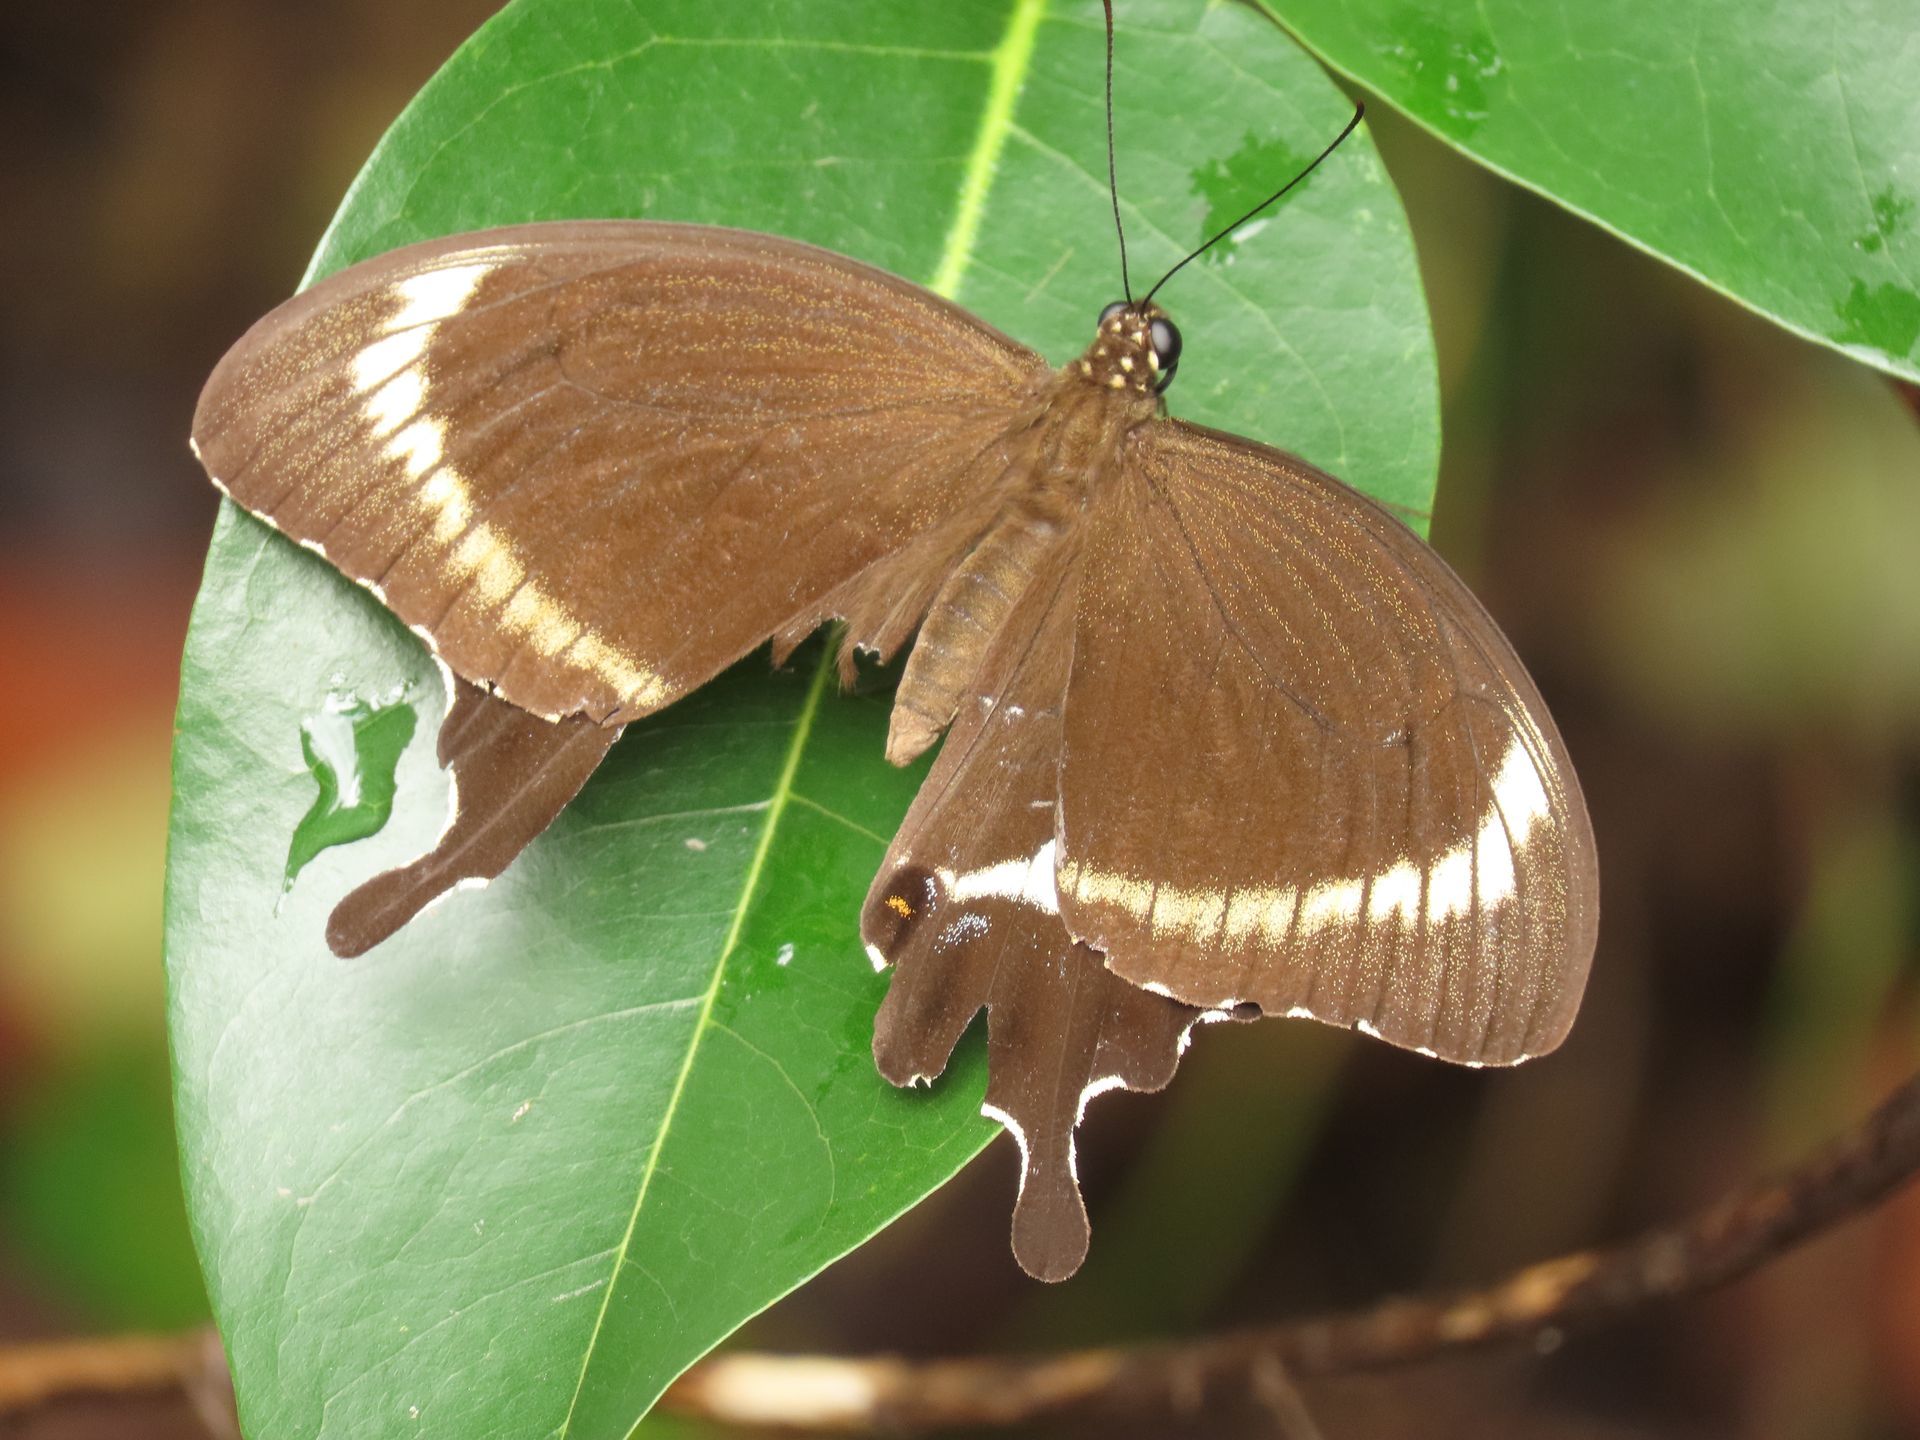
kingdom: Animalia
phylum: Arthropoda
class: Insecta
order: Lepidoptera
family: Lycaenidae
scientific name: Lycaenidae
